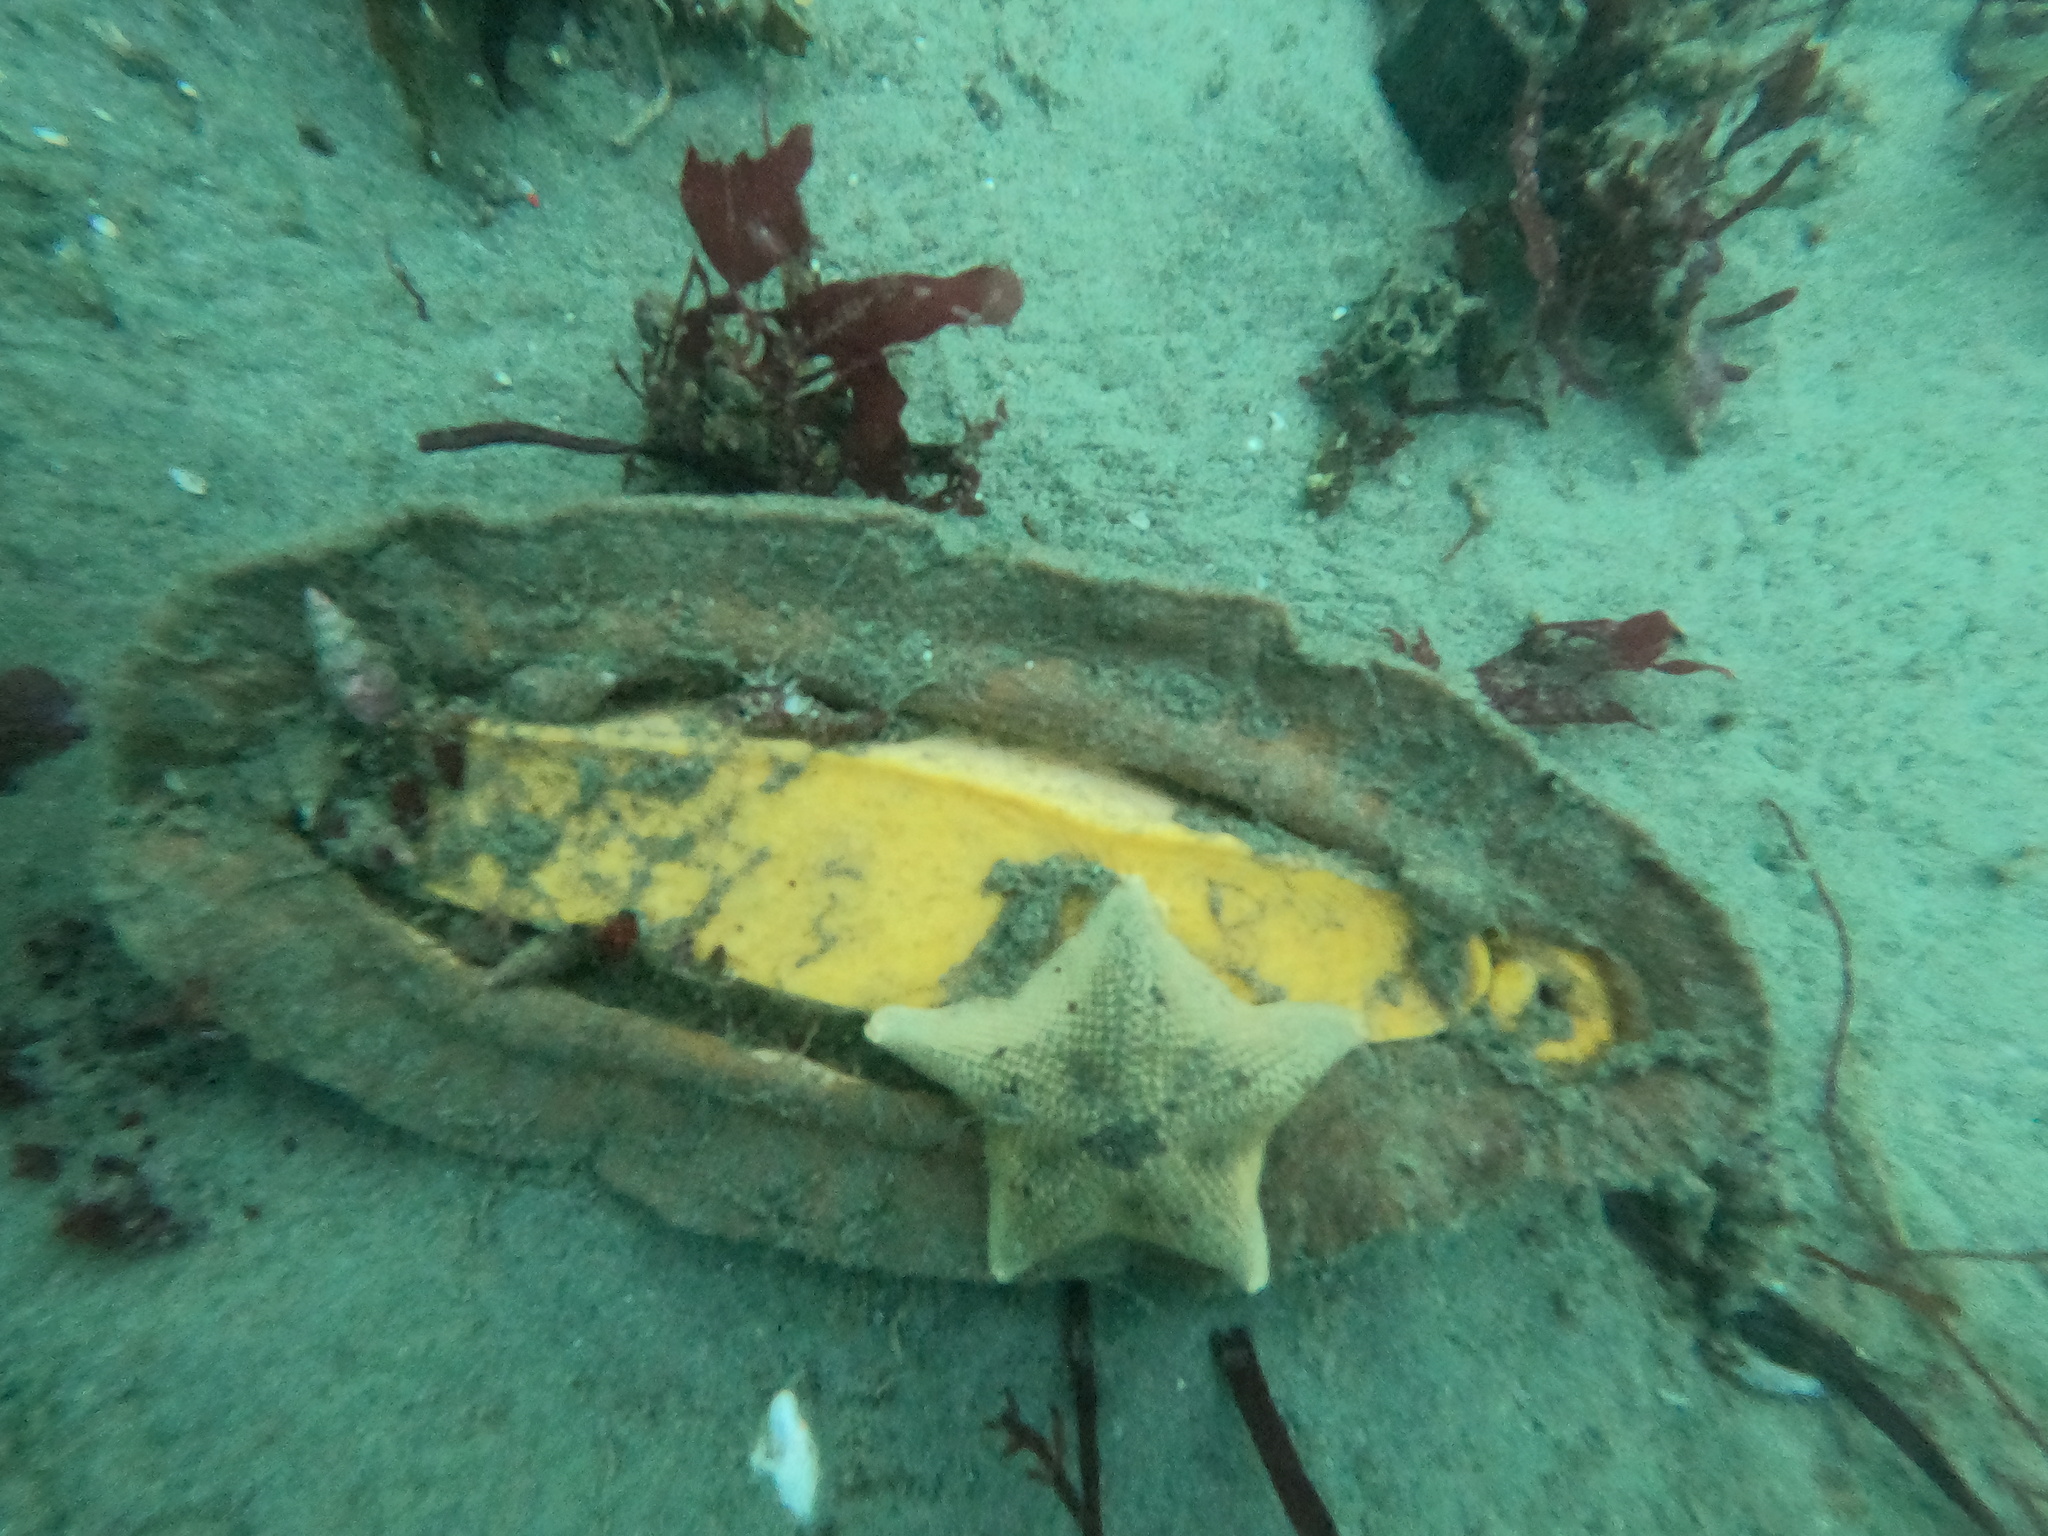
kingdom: Animalia
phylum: Echinodermata
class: Asteroidea
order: Valvatida
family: Asterinidae
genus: Patiria
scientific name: Patiria miniata
